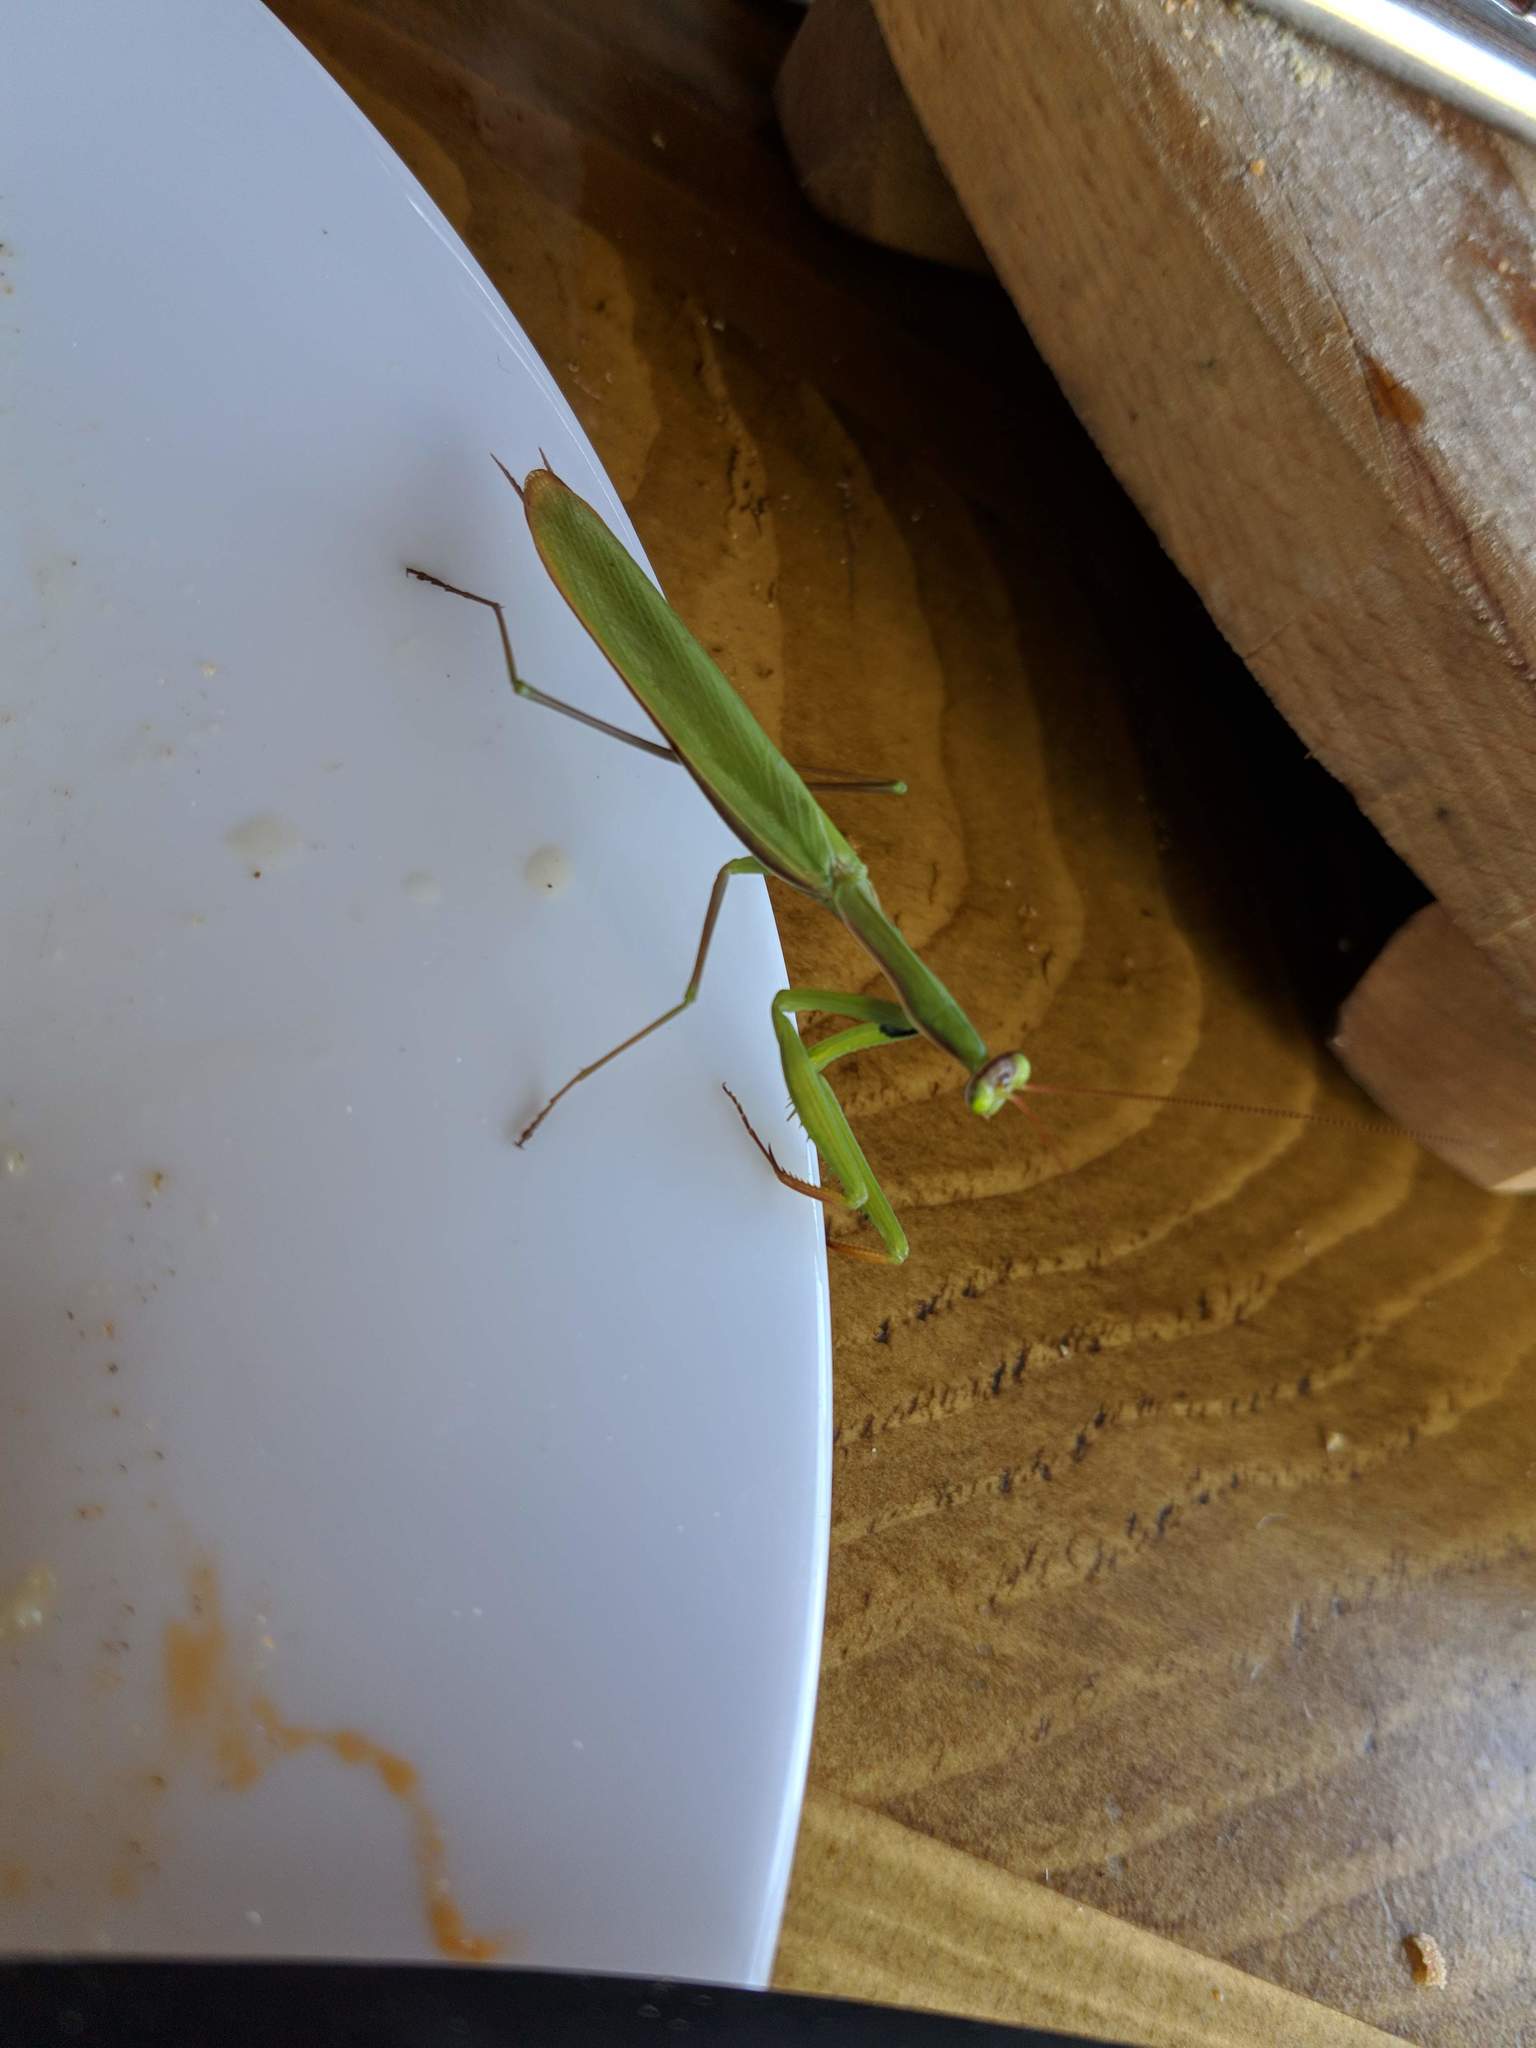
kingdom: Animalia
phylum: Arthropoda
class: Insecta
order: Mantodea
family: Mantidae
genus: Mantis
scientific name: Mantis religiosa
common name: Praying mantis
